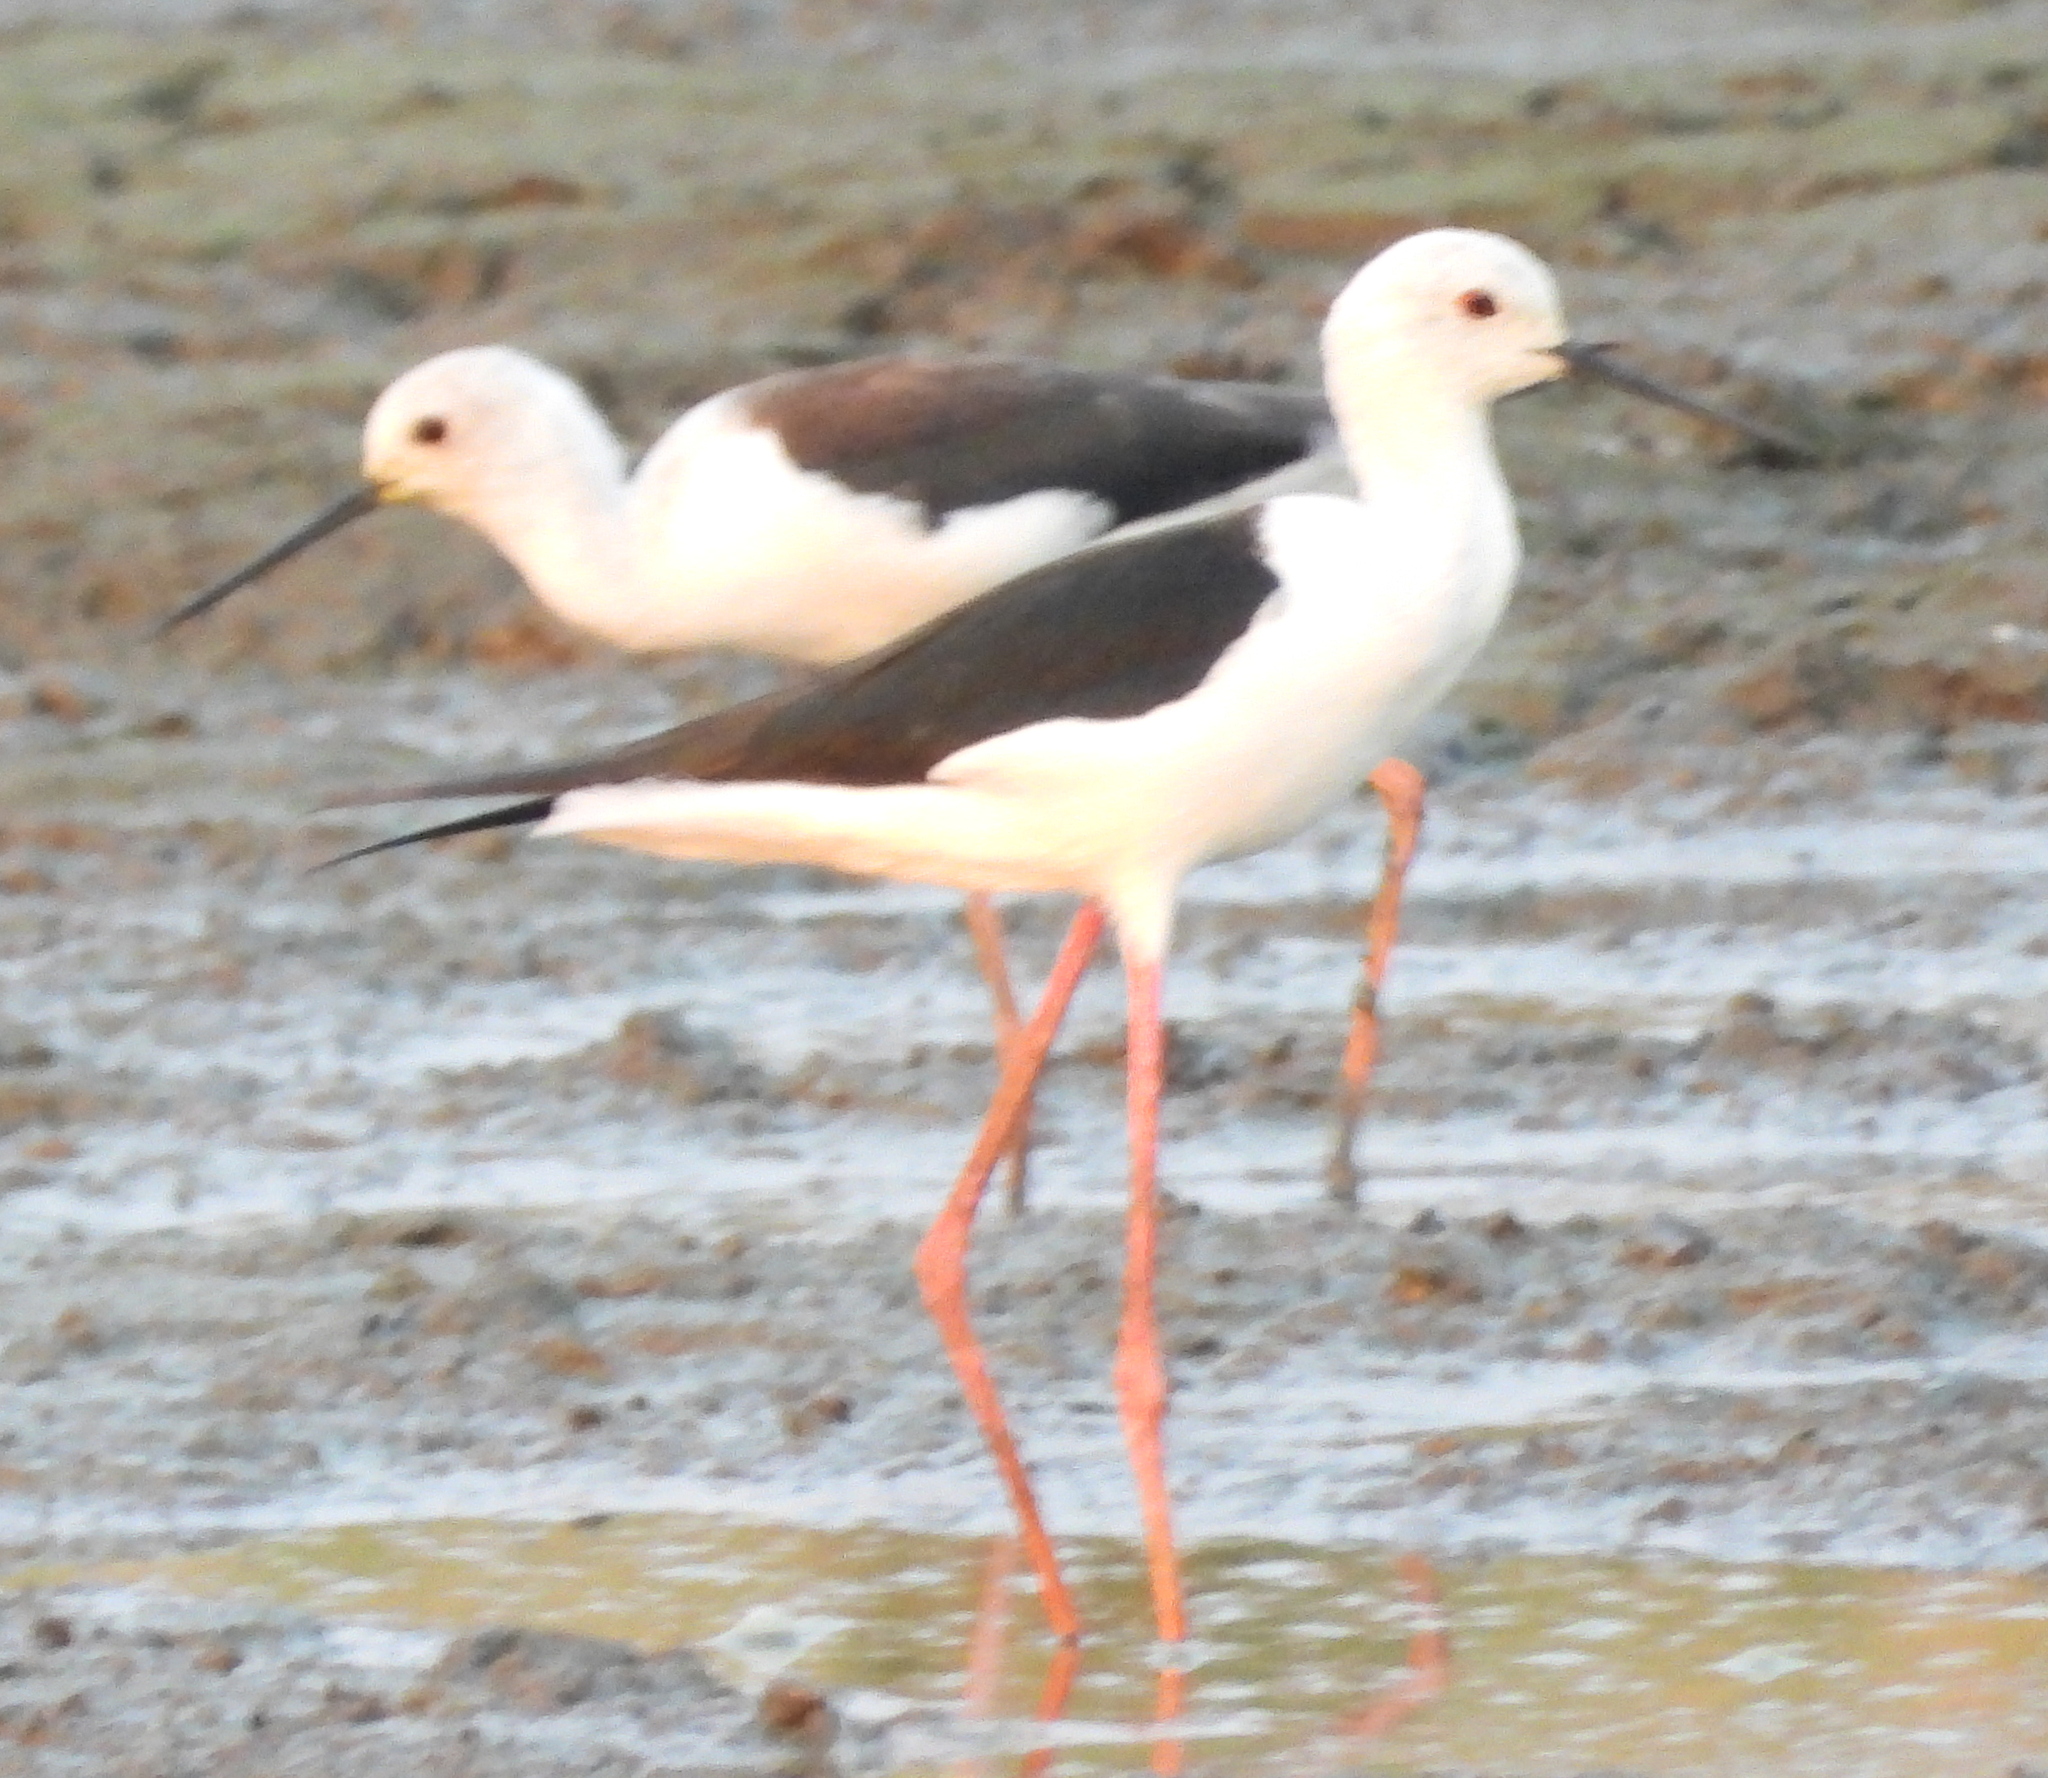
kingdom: Animalia
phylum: Chordata
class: Aves
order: Charadriiformes
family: Recurvirostridae
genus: Himantopus
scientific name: Himantopus himantopus
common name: Black-winged stilt
